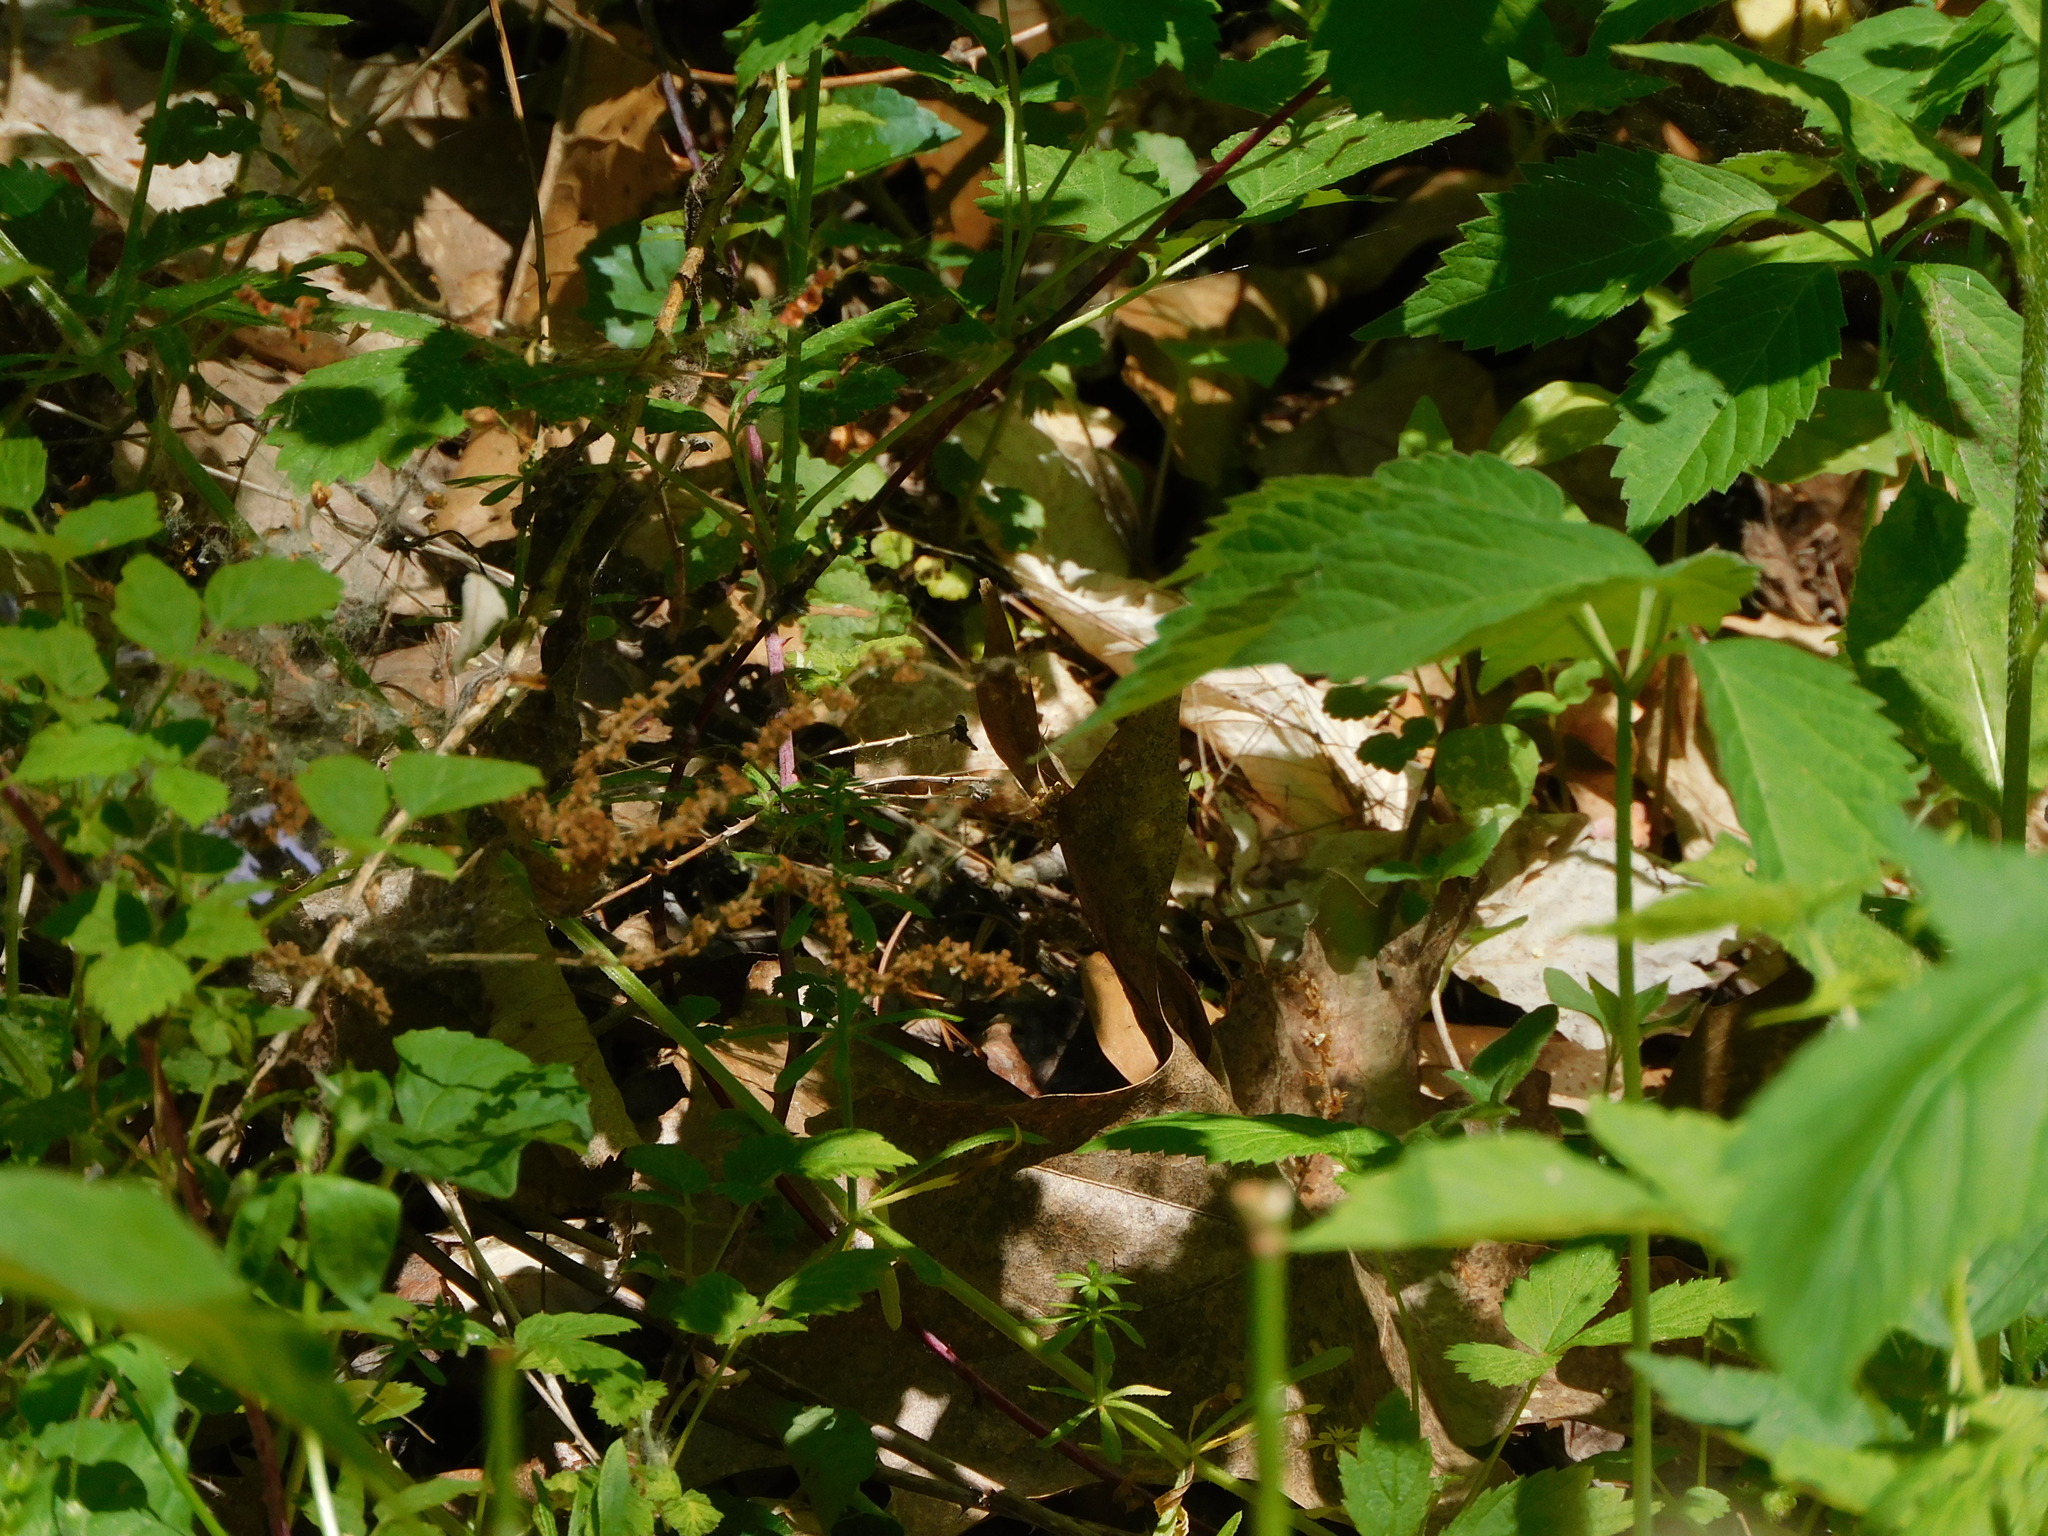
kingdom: Plantae
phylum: Tracheophyta
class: Magnoliopsida
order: Vitales
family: Vitaceae
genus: Parthenocissus
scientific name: Parthenocissus quinquefolia
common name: Virginia-creeper
